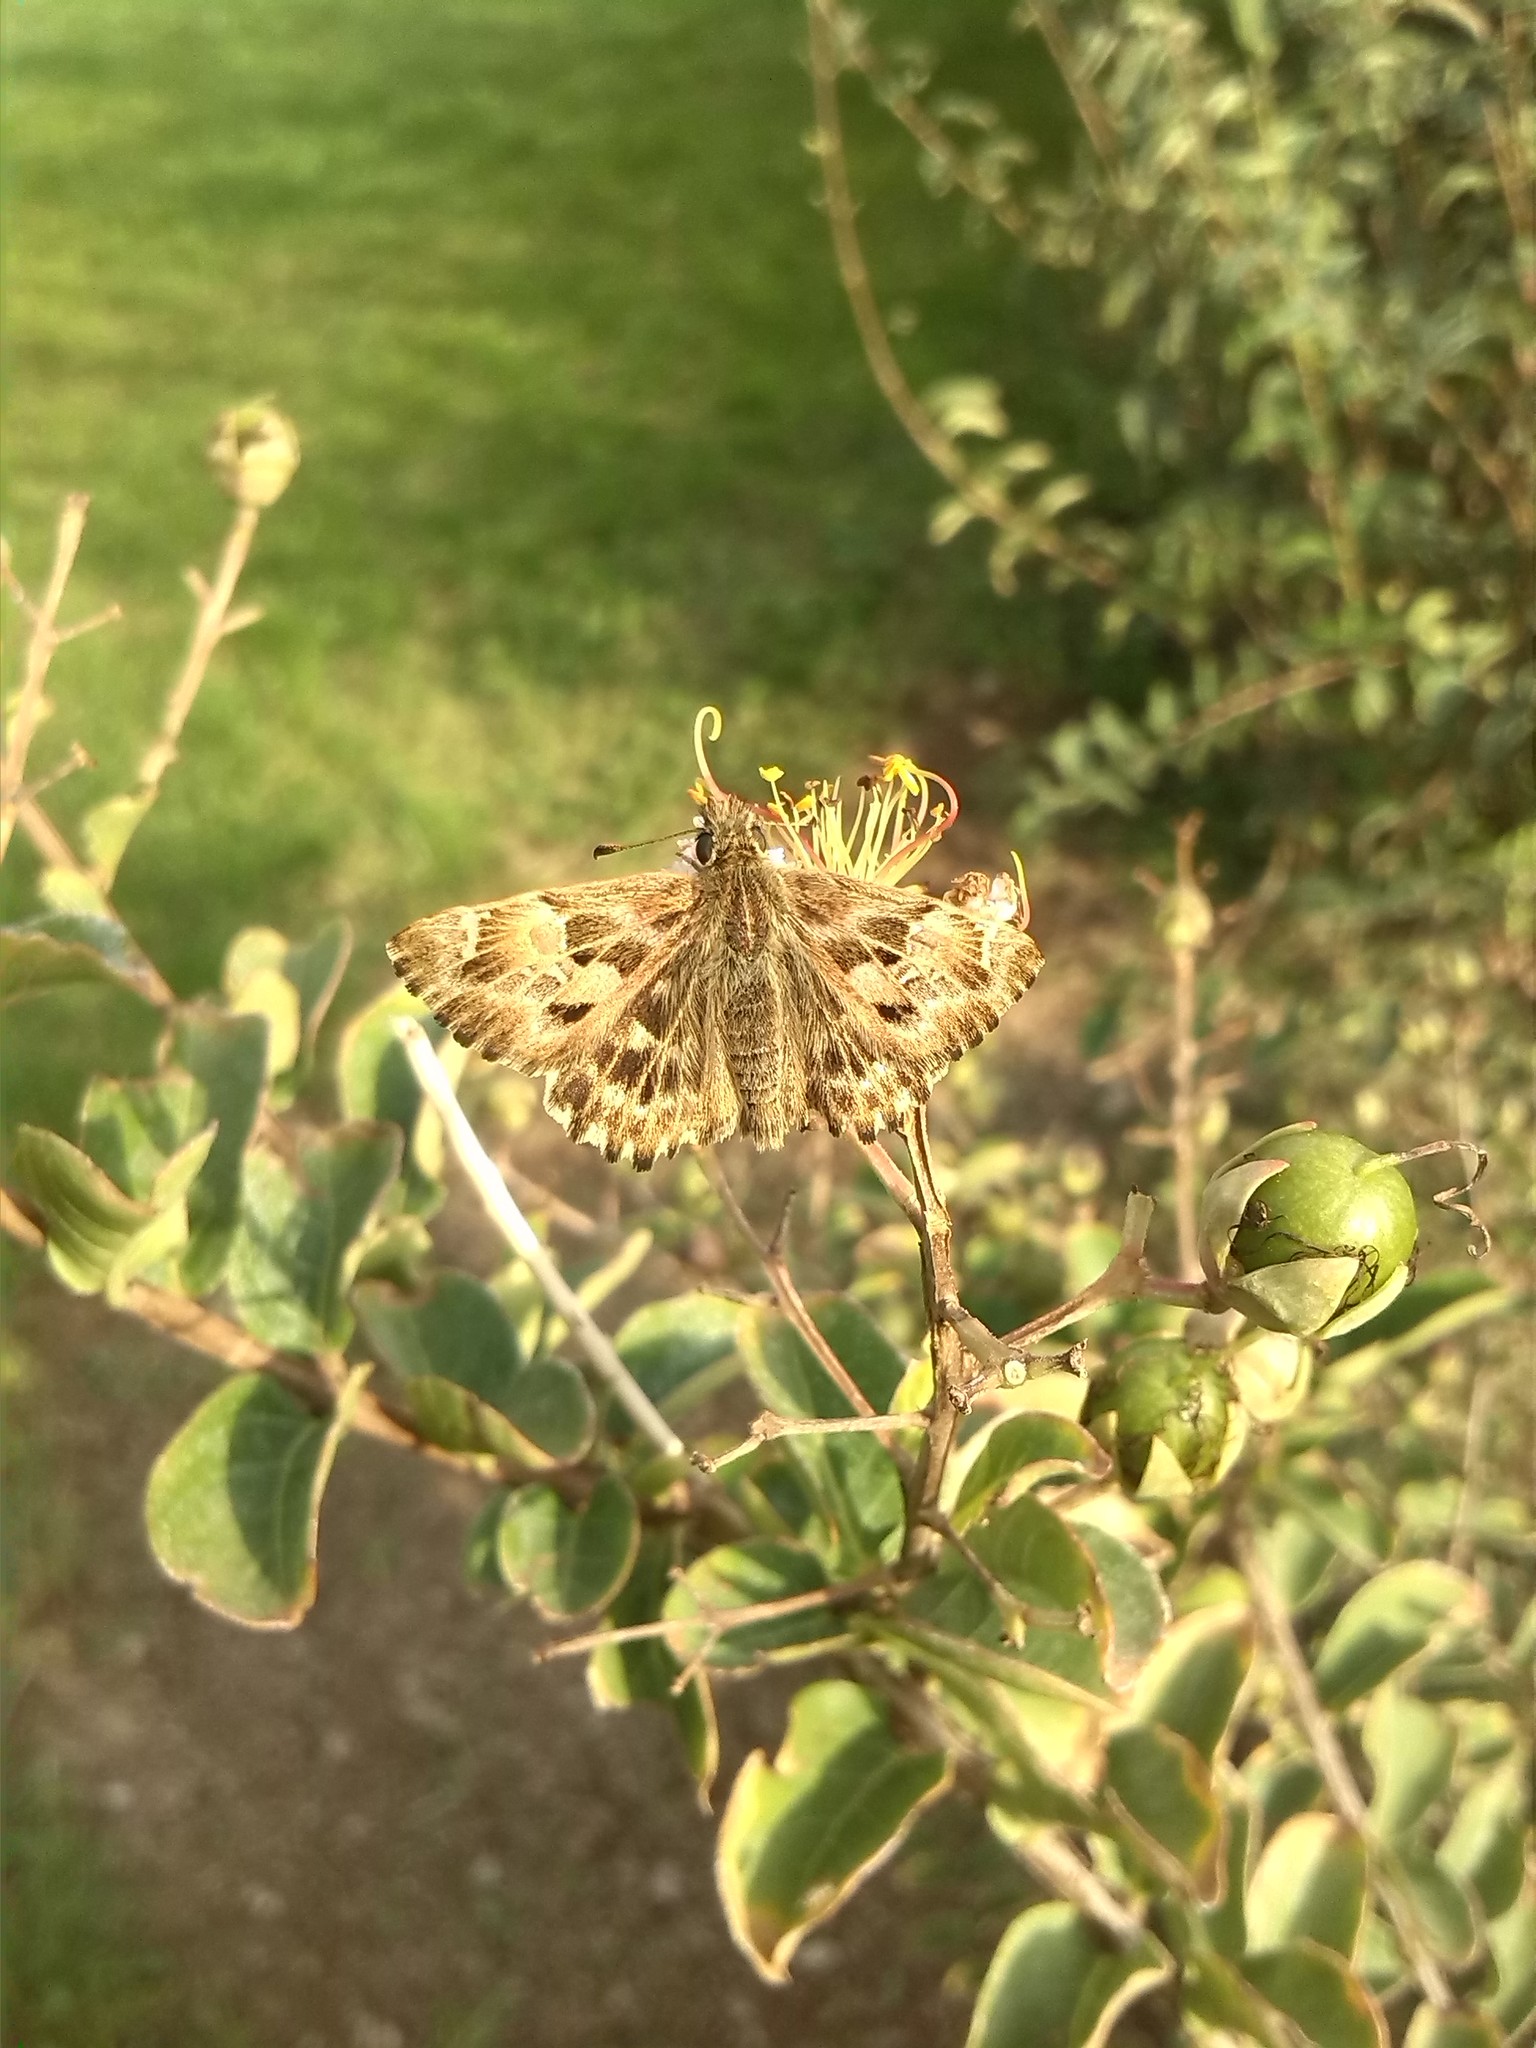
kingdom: Animalia
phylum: Arthropoda
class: Insecta
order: Lepidoptera
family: Hesperiidae
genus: Carcharodus
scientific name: Carcharodus alceae
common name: Mallow skipper
